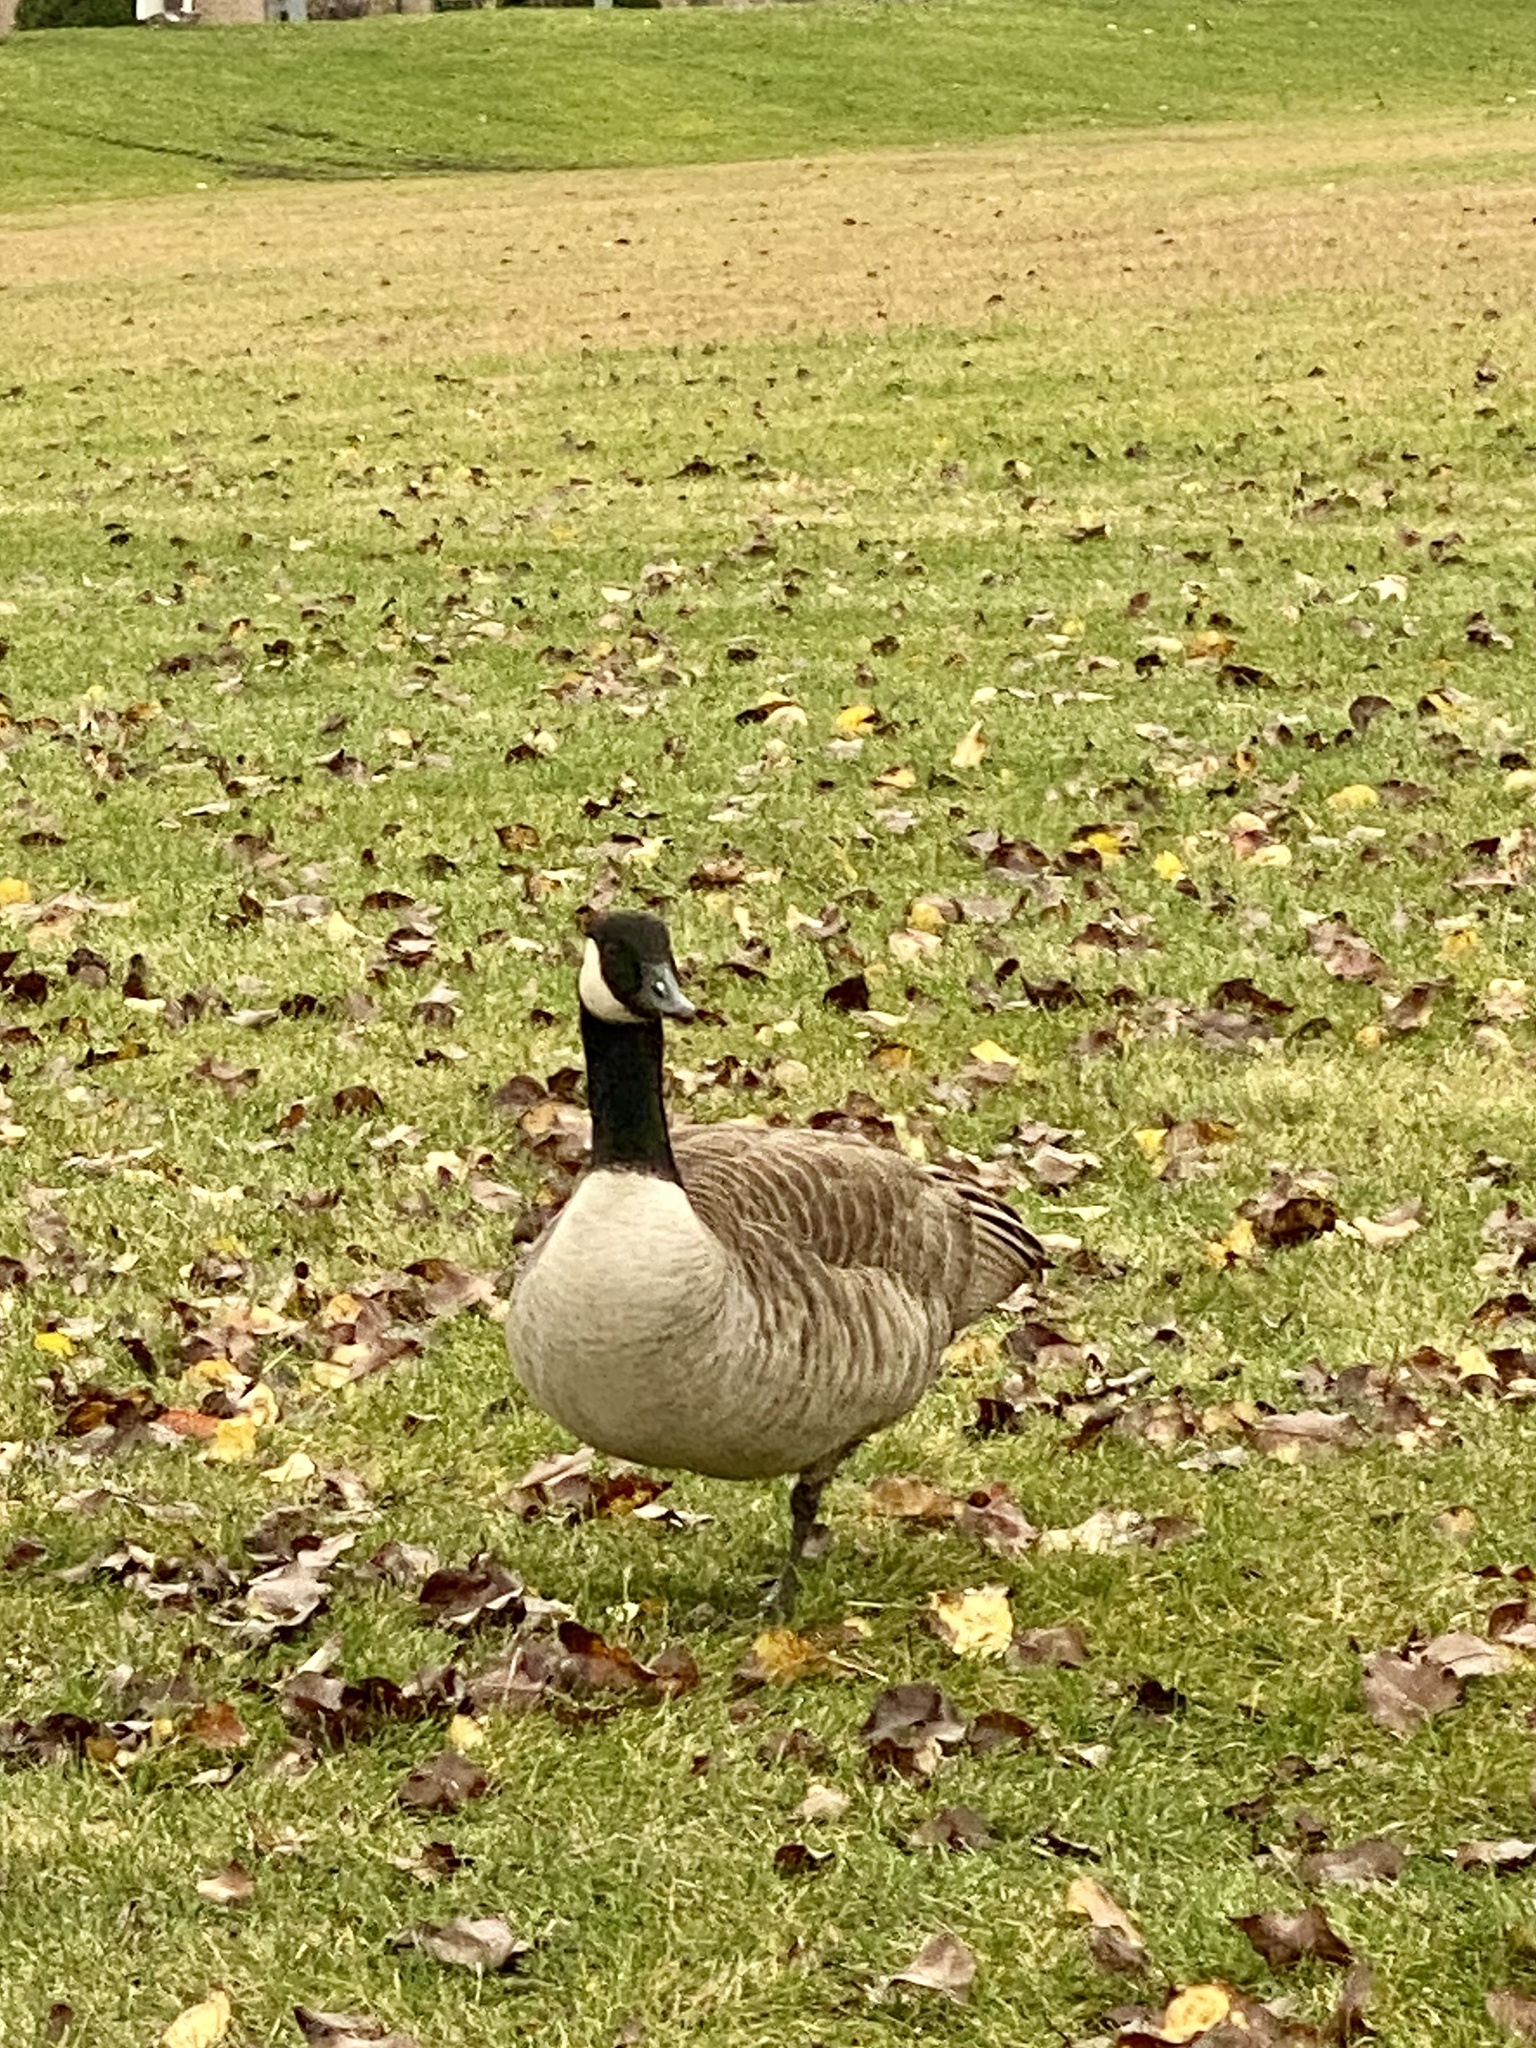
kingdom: Animalia
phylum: Chordata
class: Aves
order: Anseriformes
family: Anatidae
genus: Branta
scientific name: Branta canadensis
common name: Canada goose
